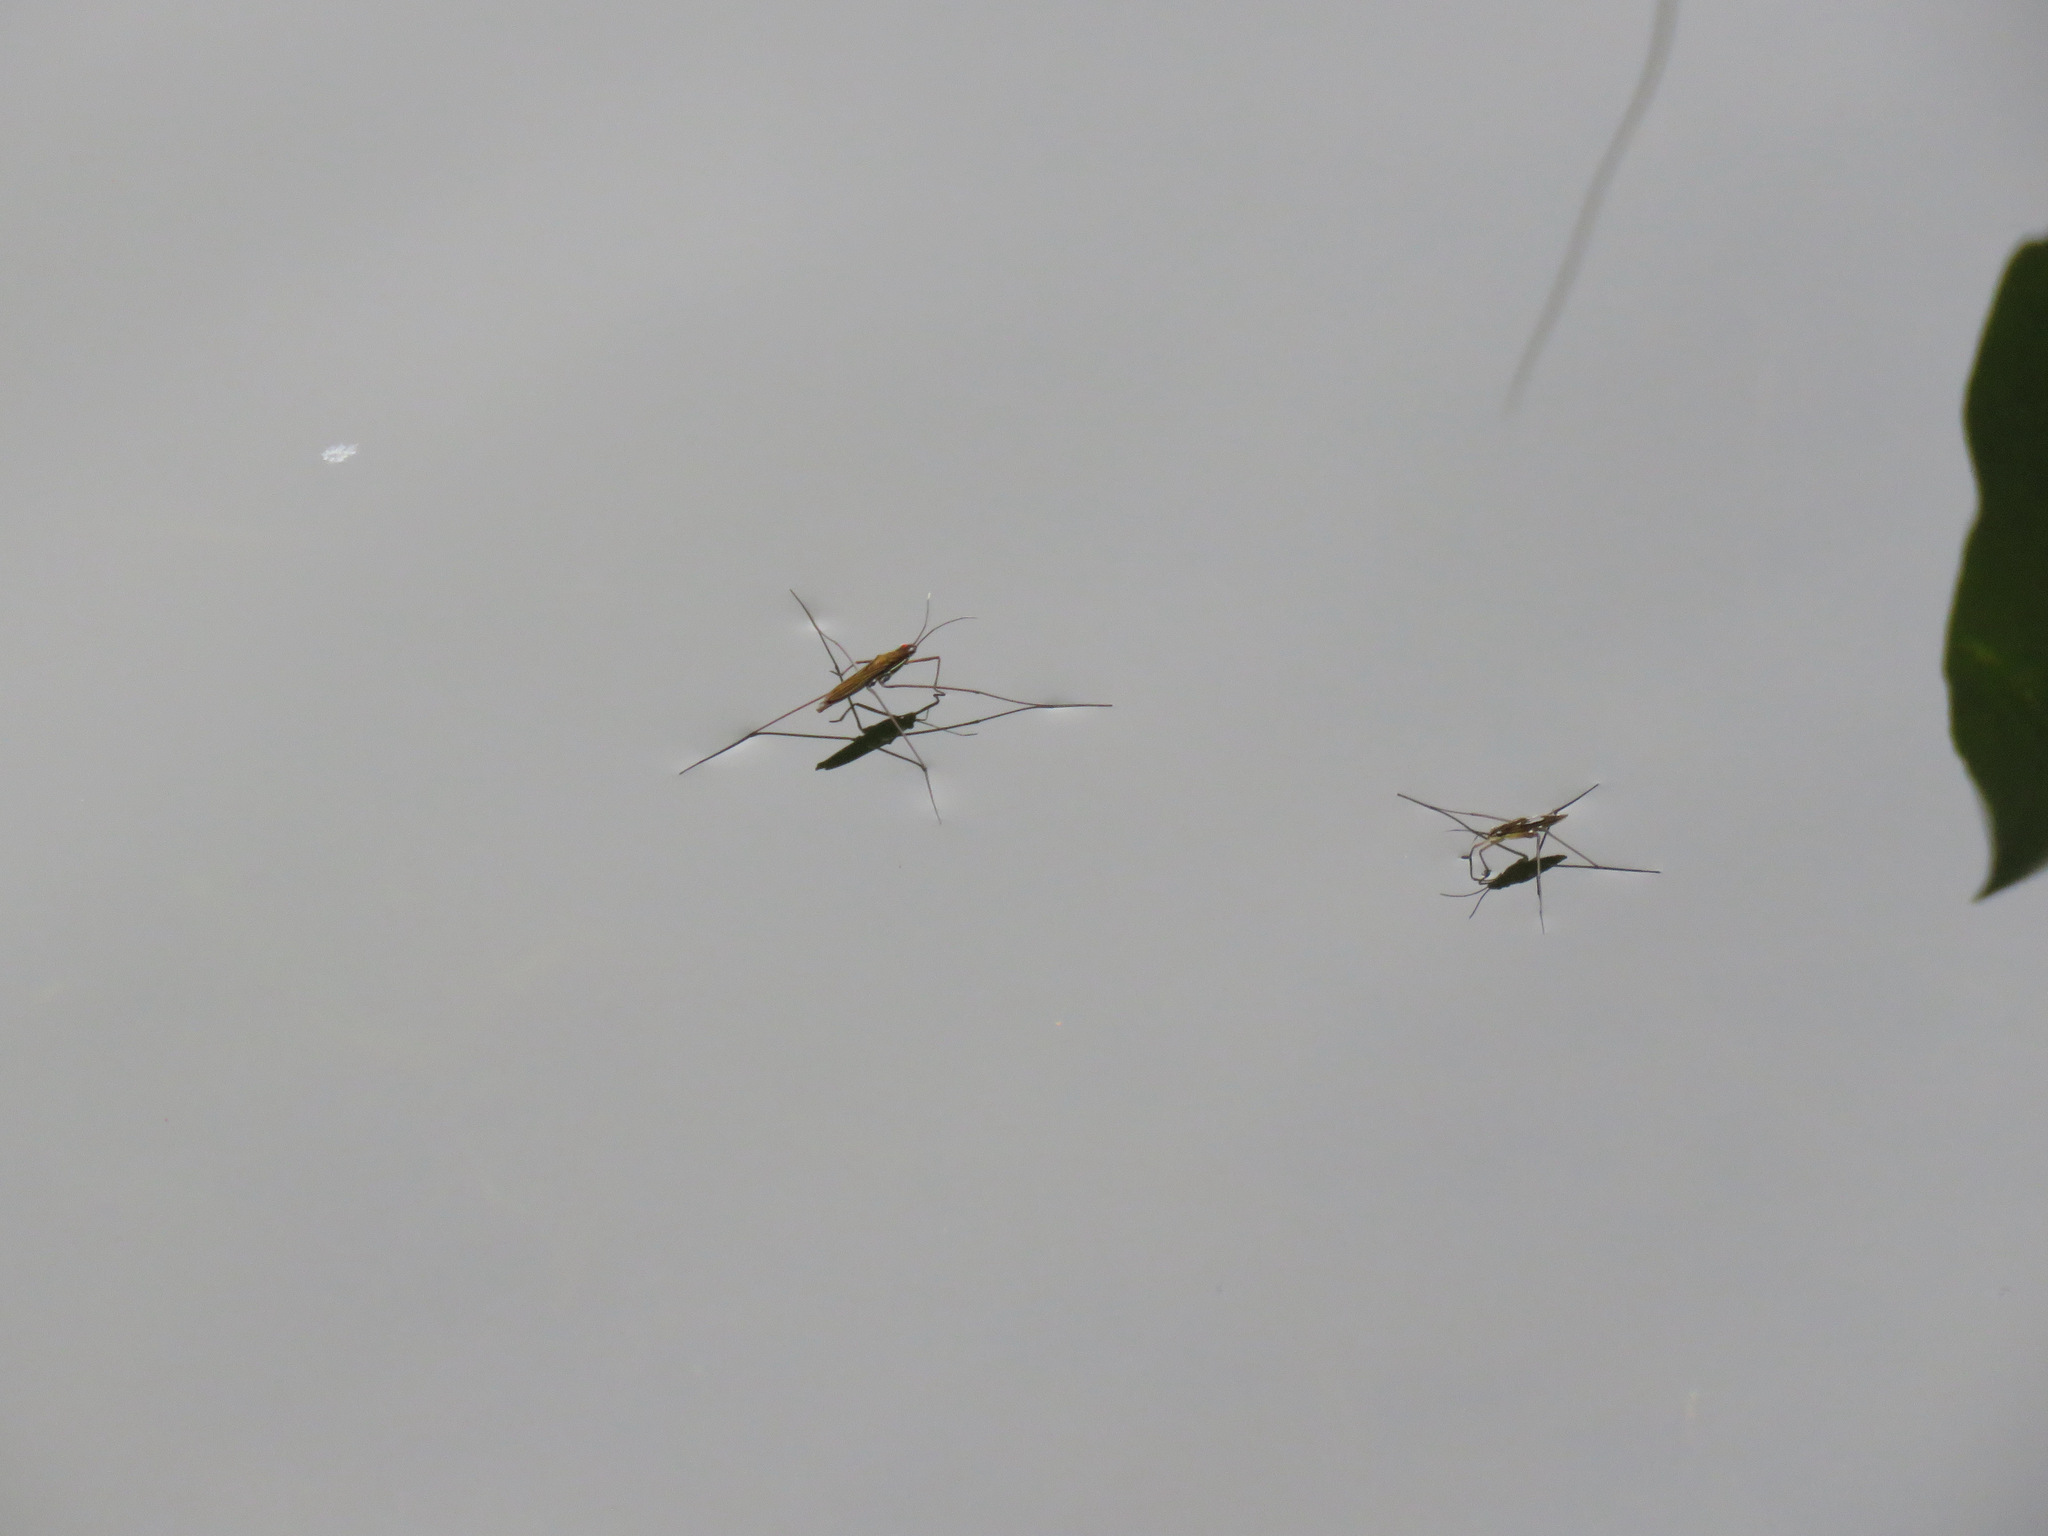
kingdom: Animalia
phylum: Arthropoda
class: Insecta
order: Hemiptera
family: Gerridae
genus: Limnoporus
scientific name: Limnoporus notabilis
